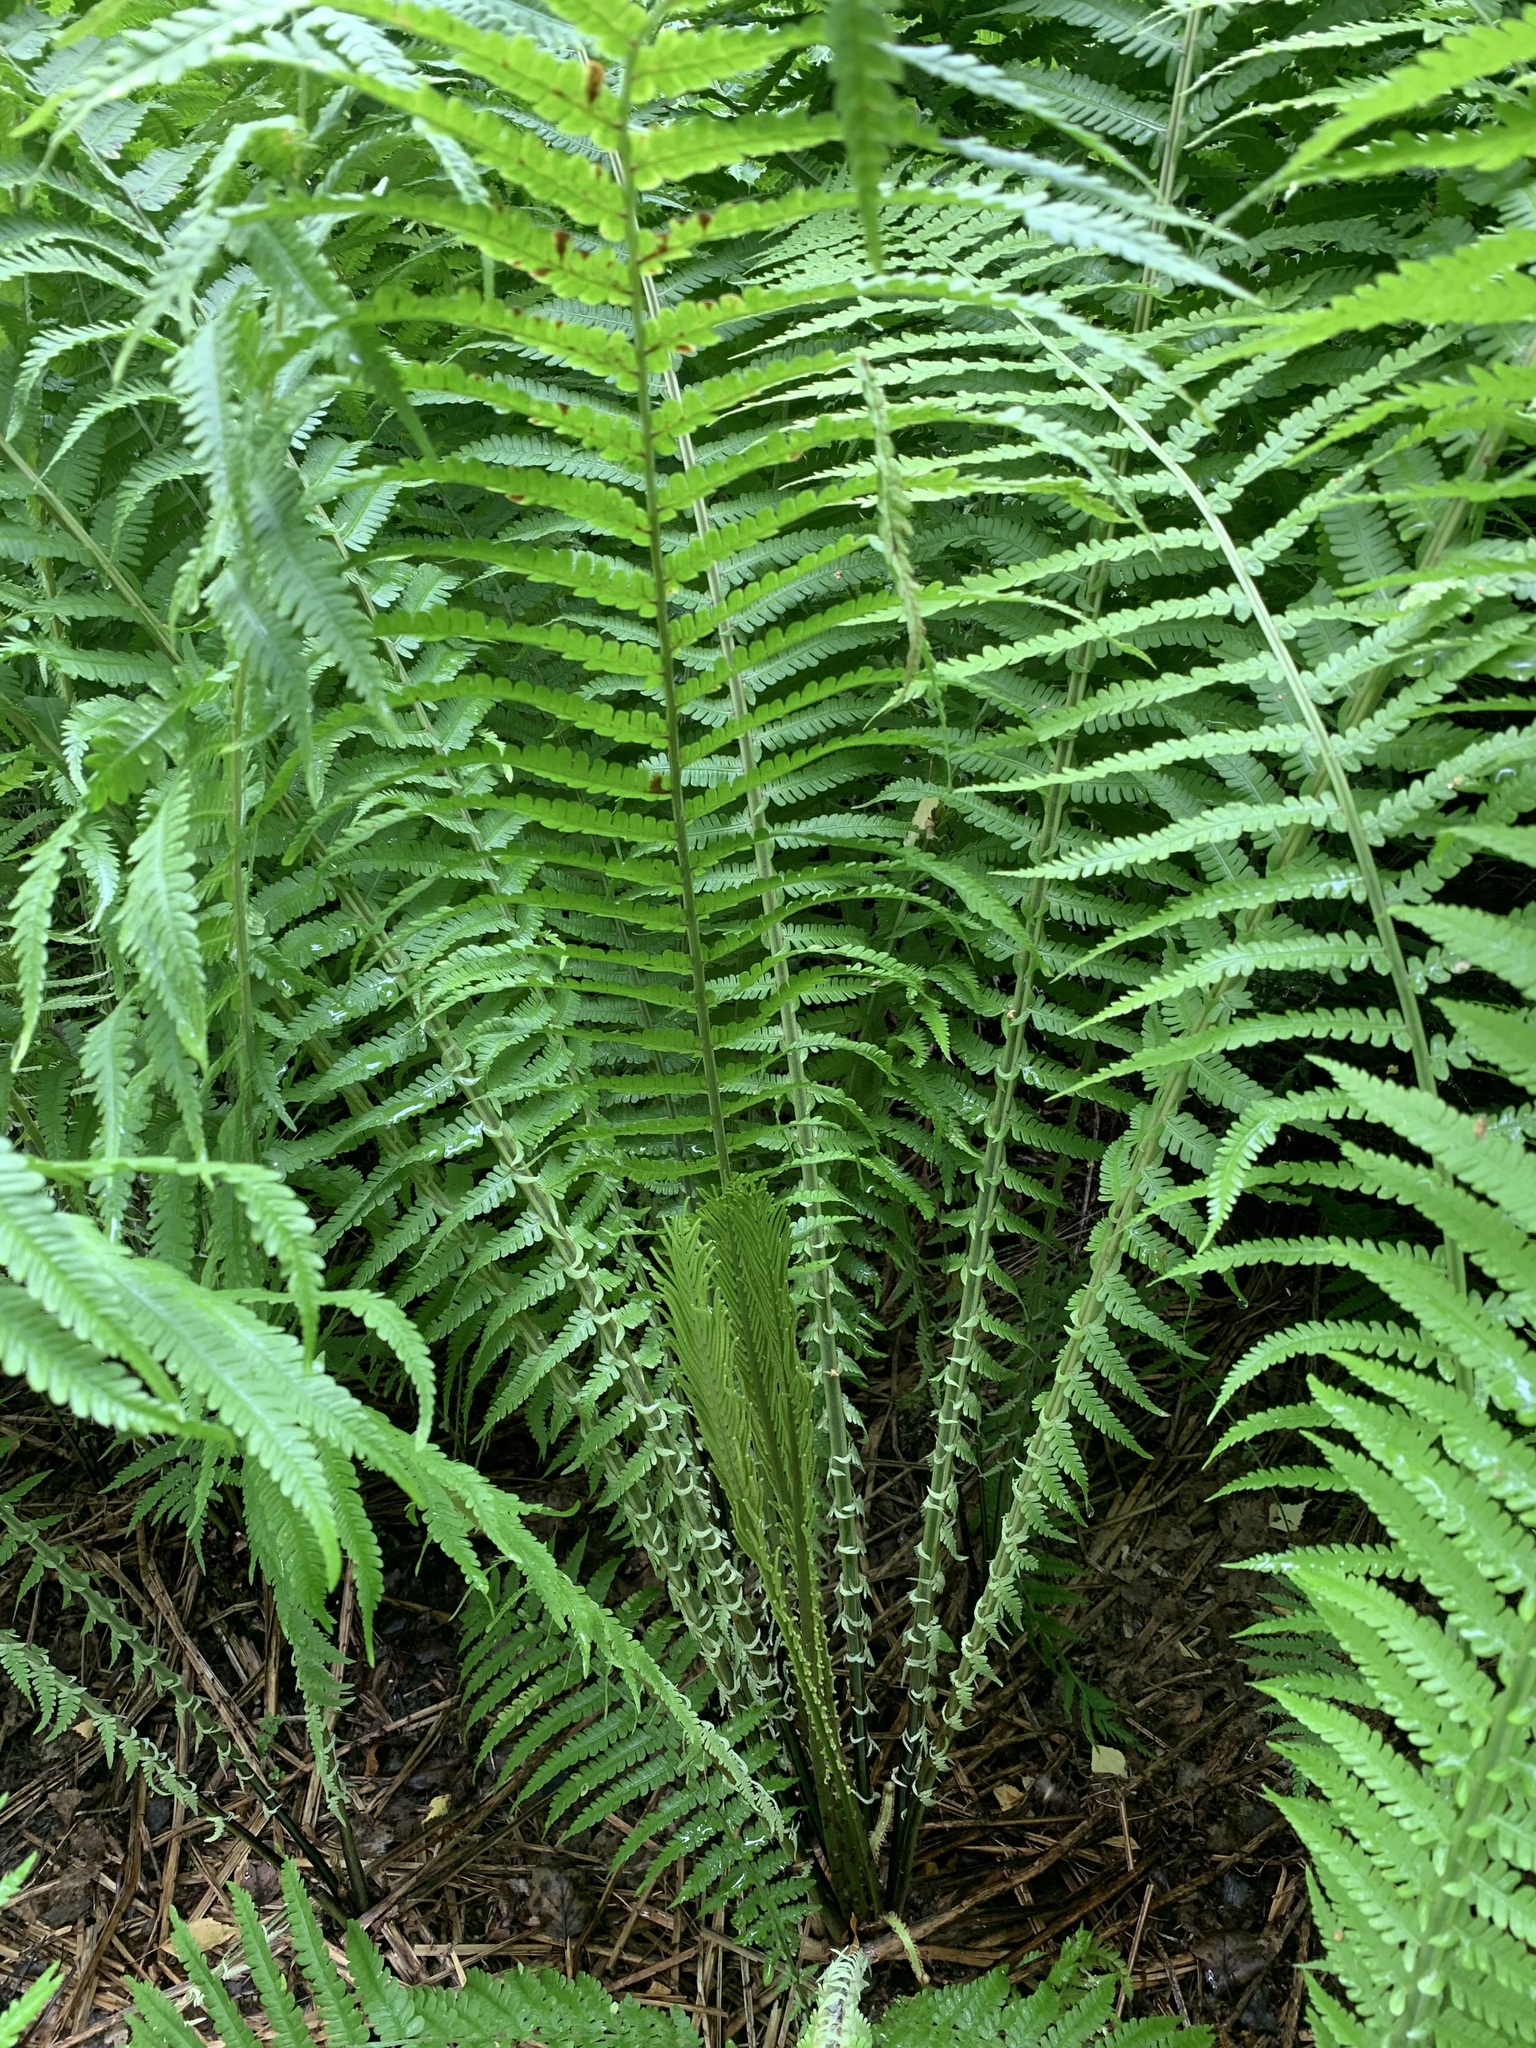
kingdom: Plantae
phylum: Tracheophyta
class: Polypodiopsida
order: Polypodiales
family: Onocleaceae
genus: Matteuccia
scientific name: Matteuccia struthiopteris
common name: Ostrich fern
